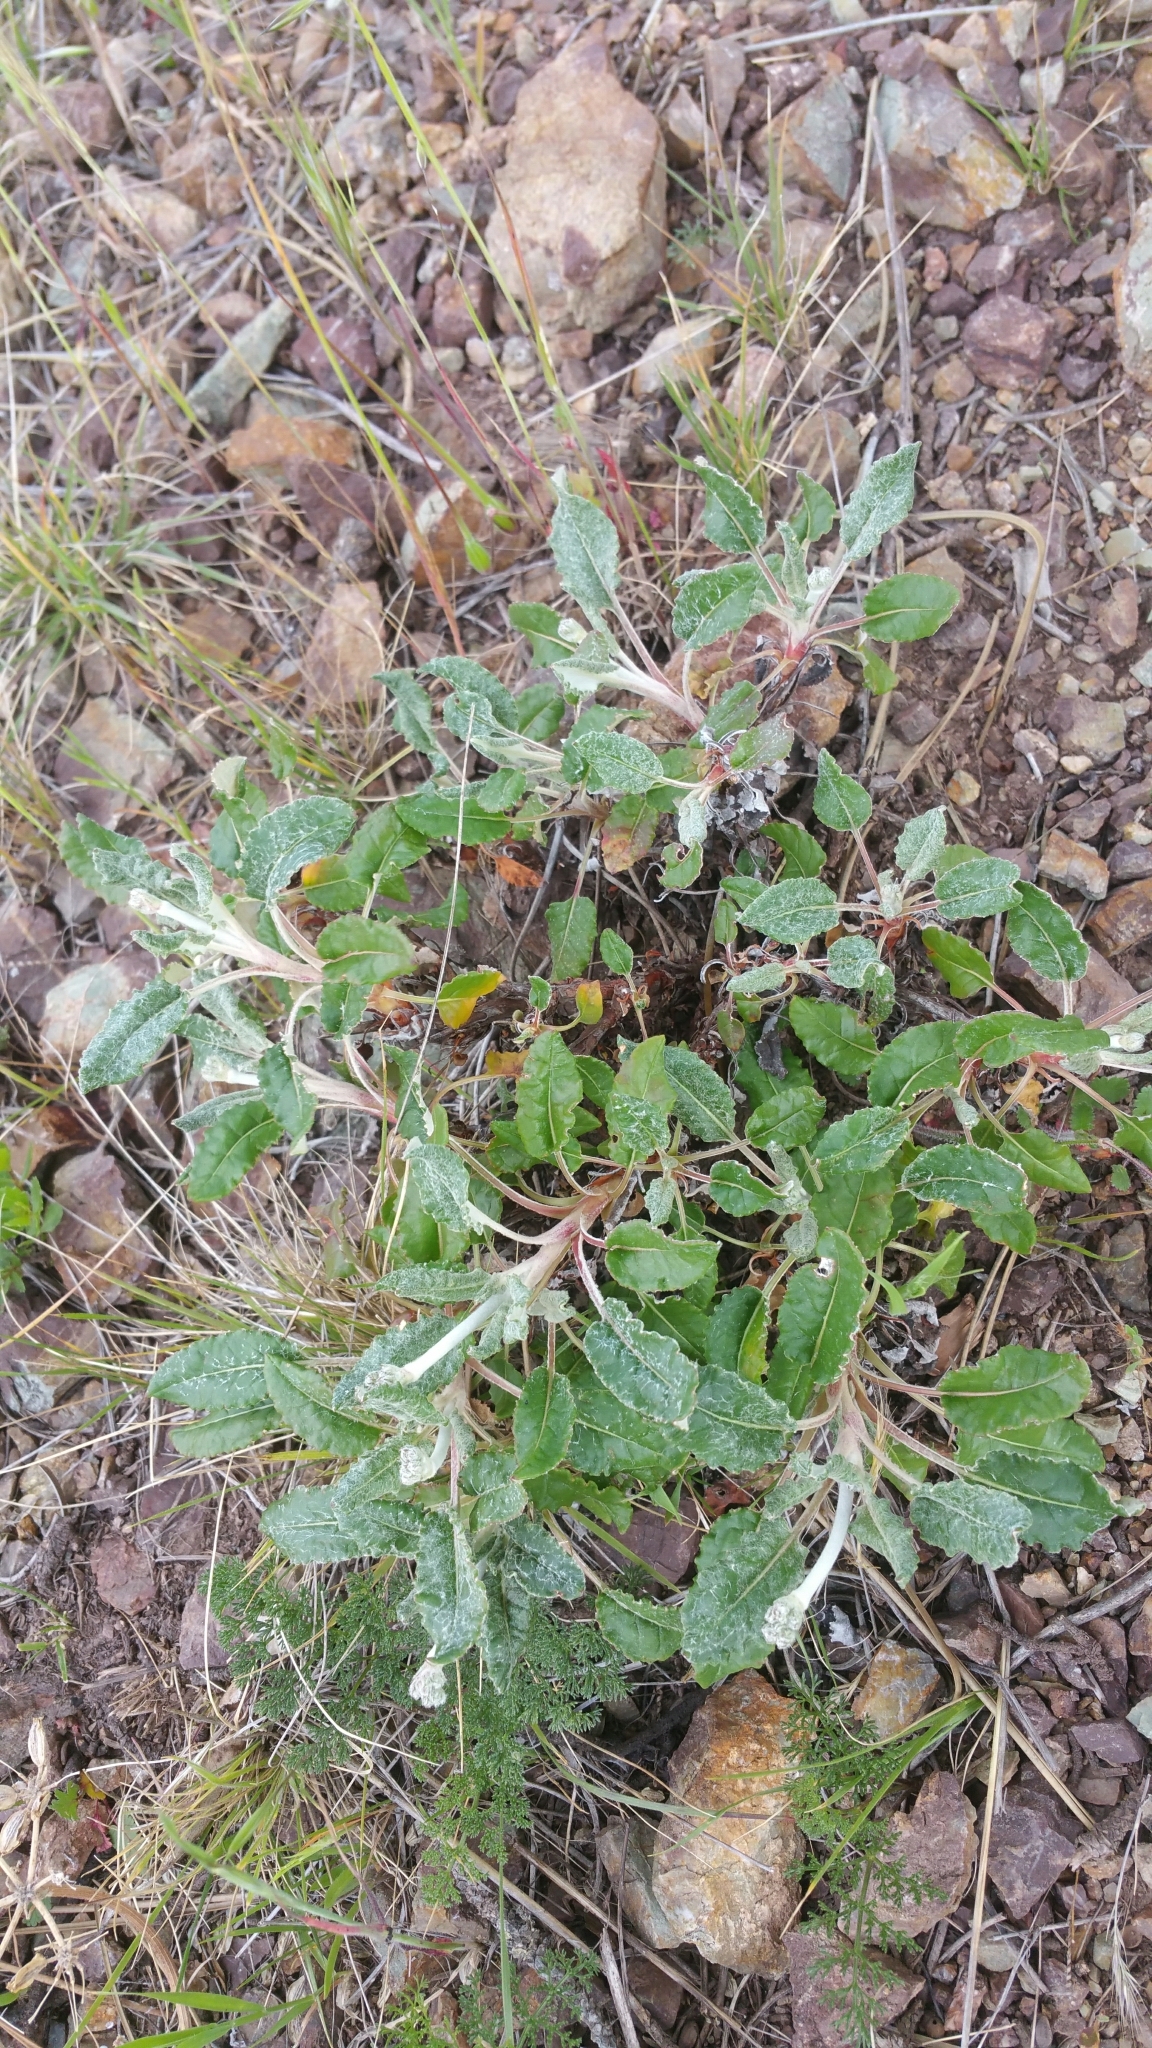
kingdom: Plantae
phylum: Tracheophyta
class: Magnoliopsida
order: Caryophyllales
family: Polygonaceae
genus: Eriogonum
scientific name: Eriogonum latifolium
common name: Seaside wild buckwheat
